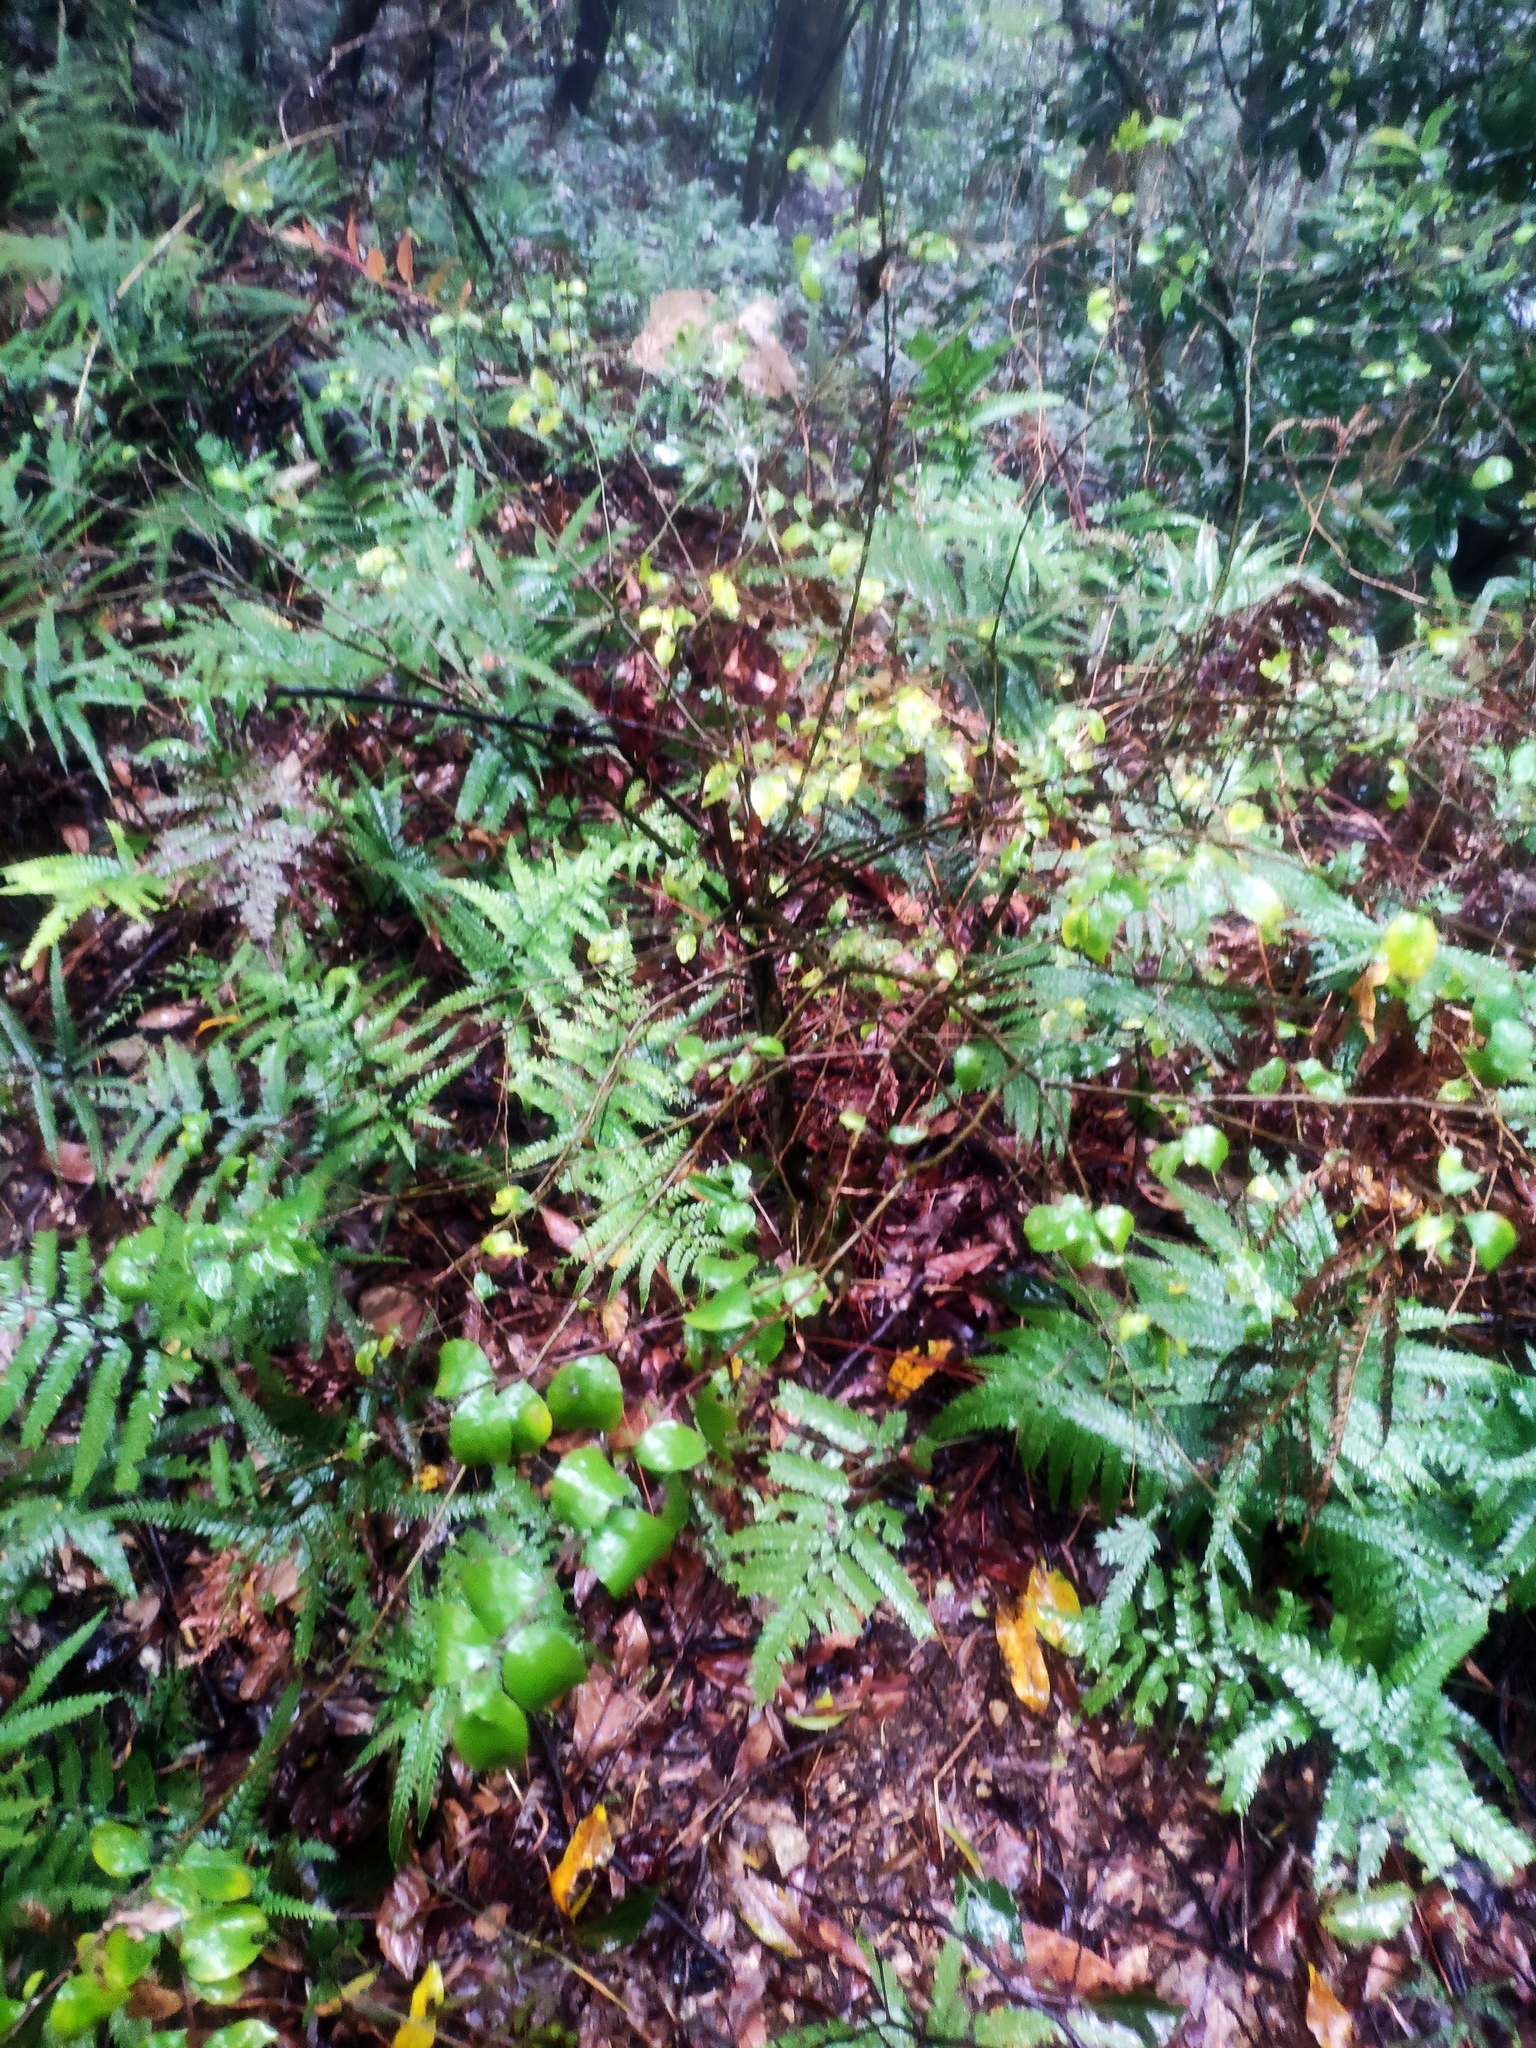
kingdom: Plantae
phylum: Tracheophyta
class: Magnoliopsida
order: Aquifoliales
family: Aquifoliaceae
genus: Ilex
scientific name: Ilex asprella
